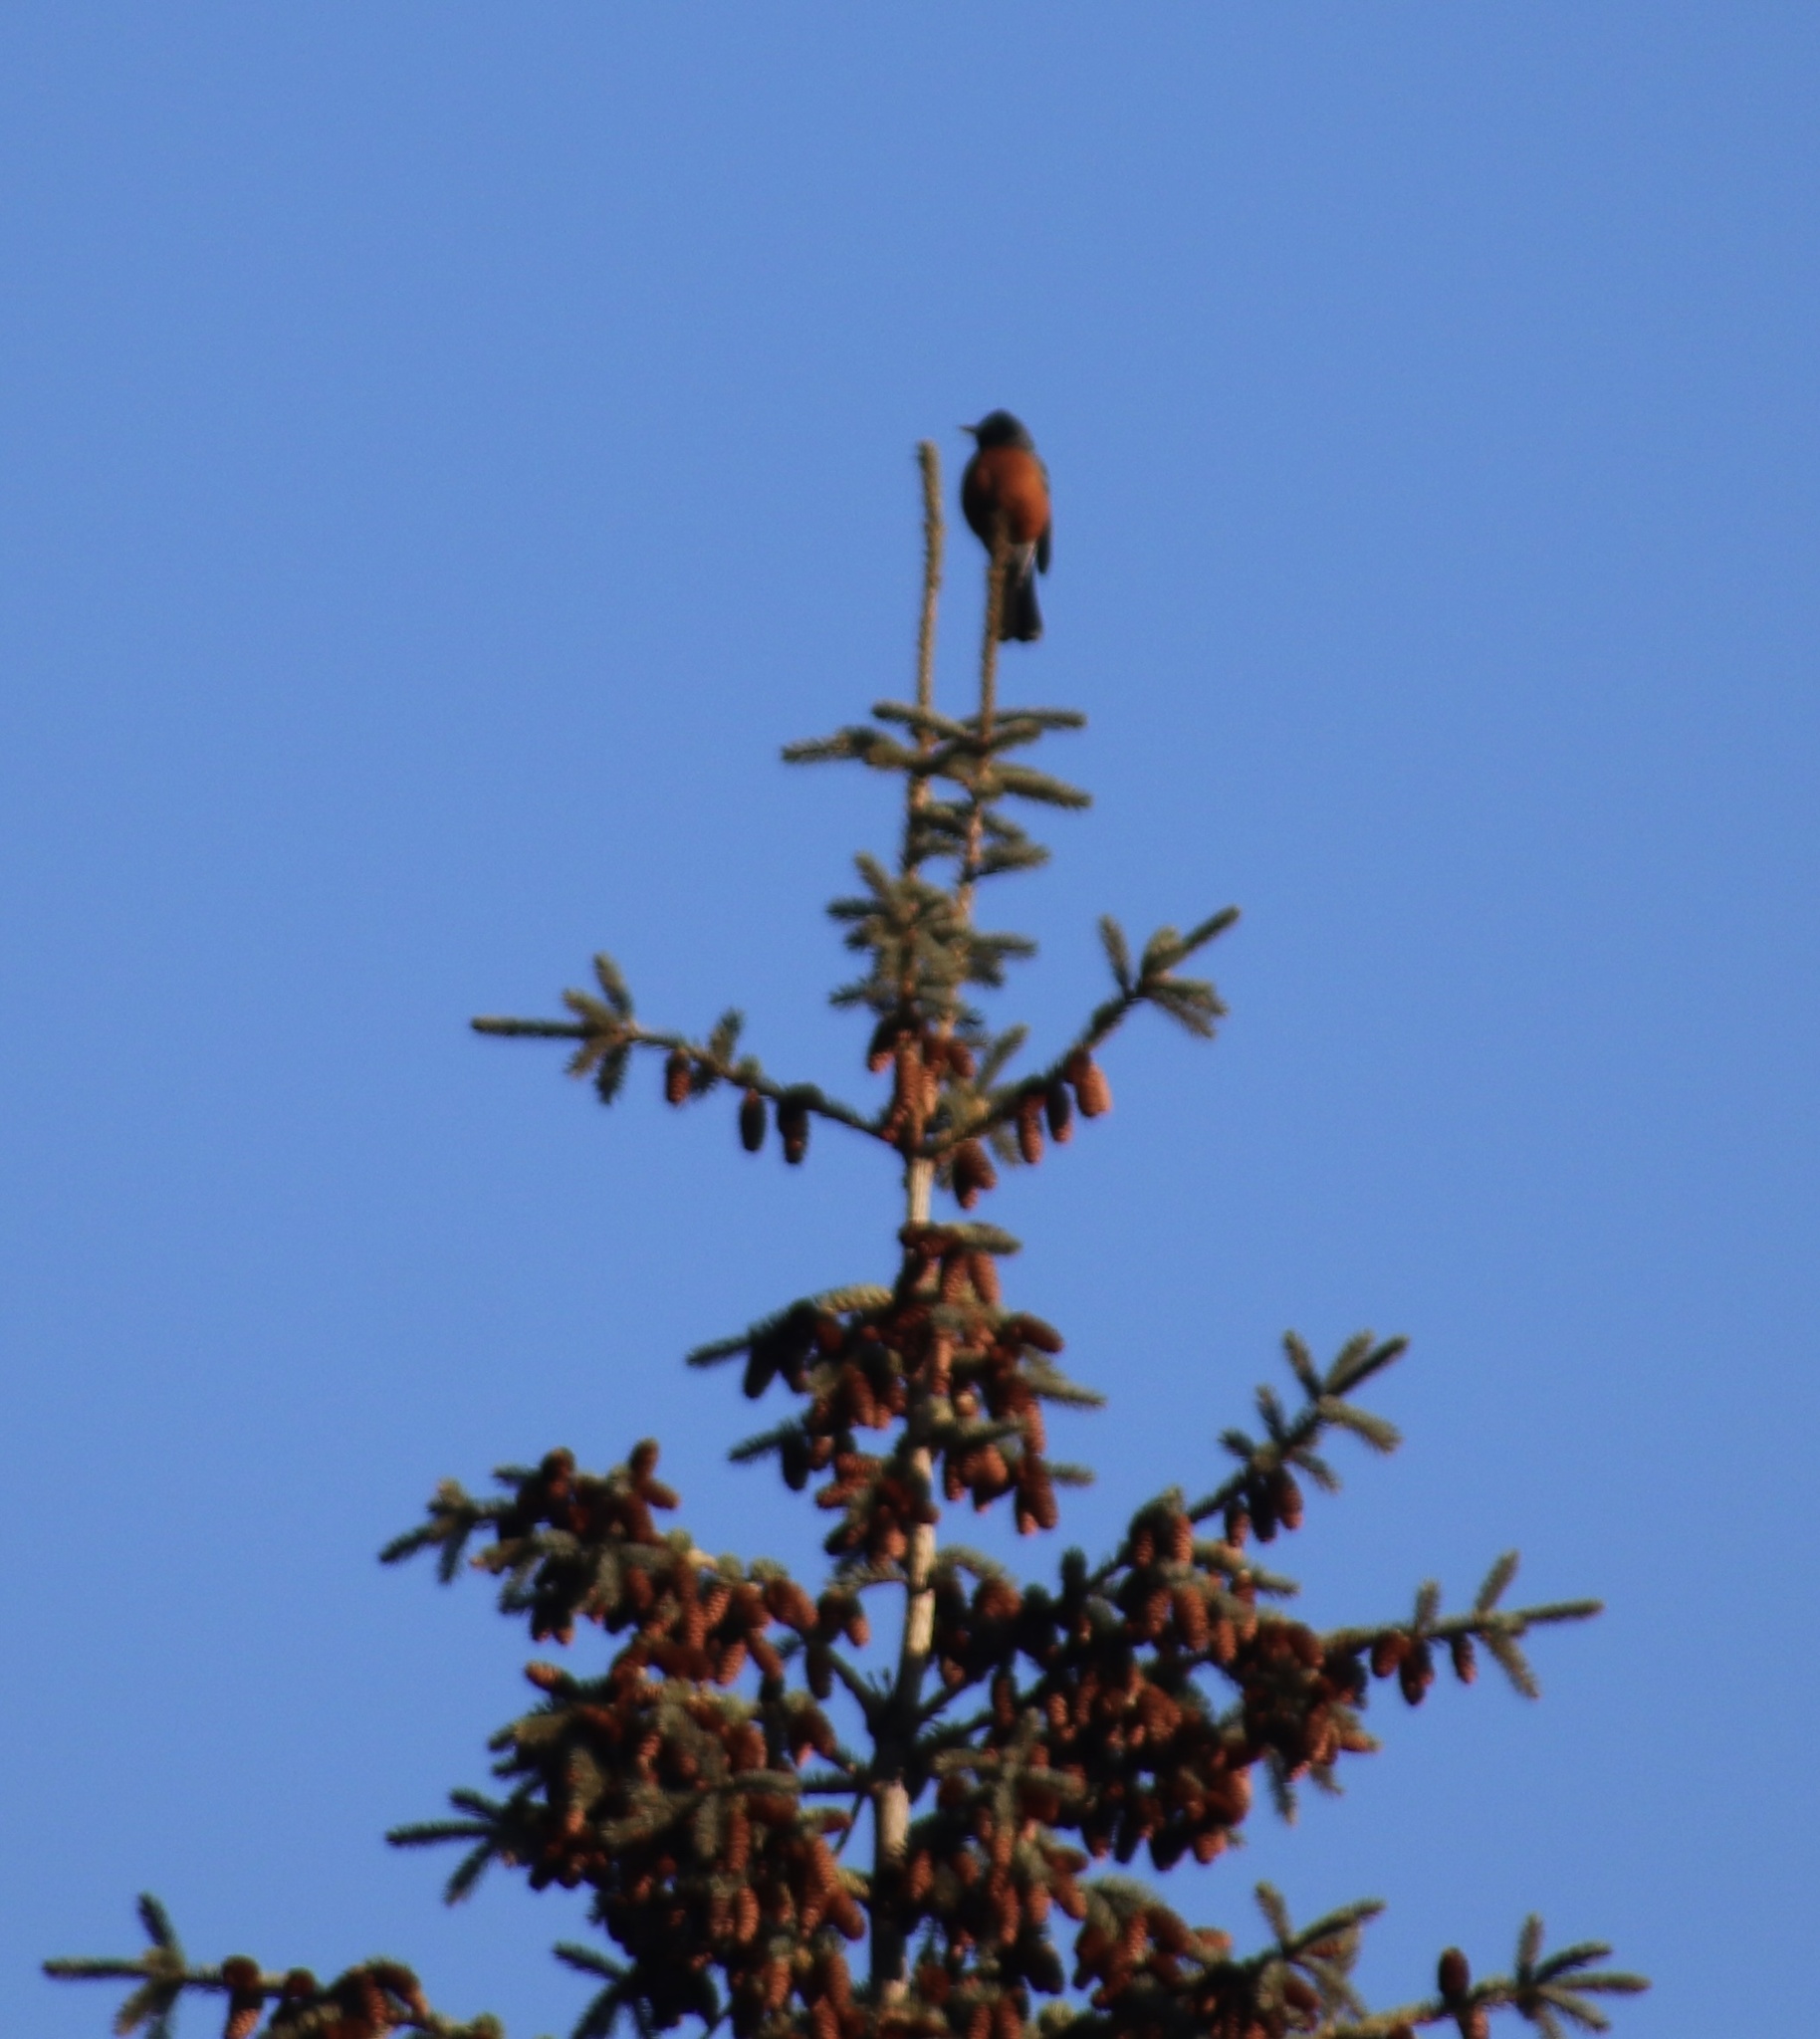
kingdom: Animalia
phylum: Chordata
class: Aves
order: Passeriformes
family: Turdidae
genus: Turdus
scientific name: Turdus migratorius
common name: American robin
